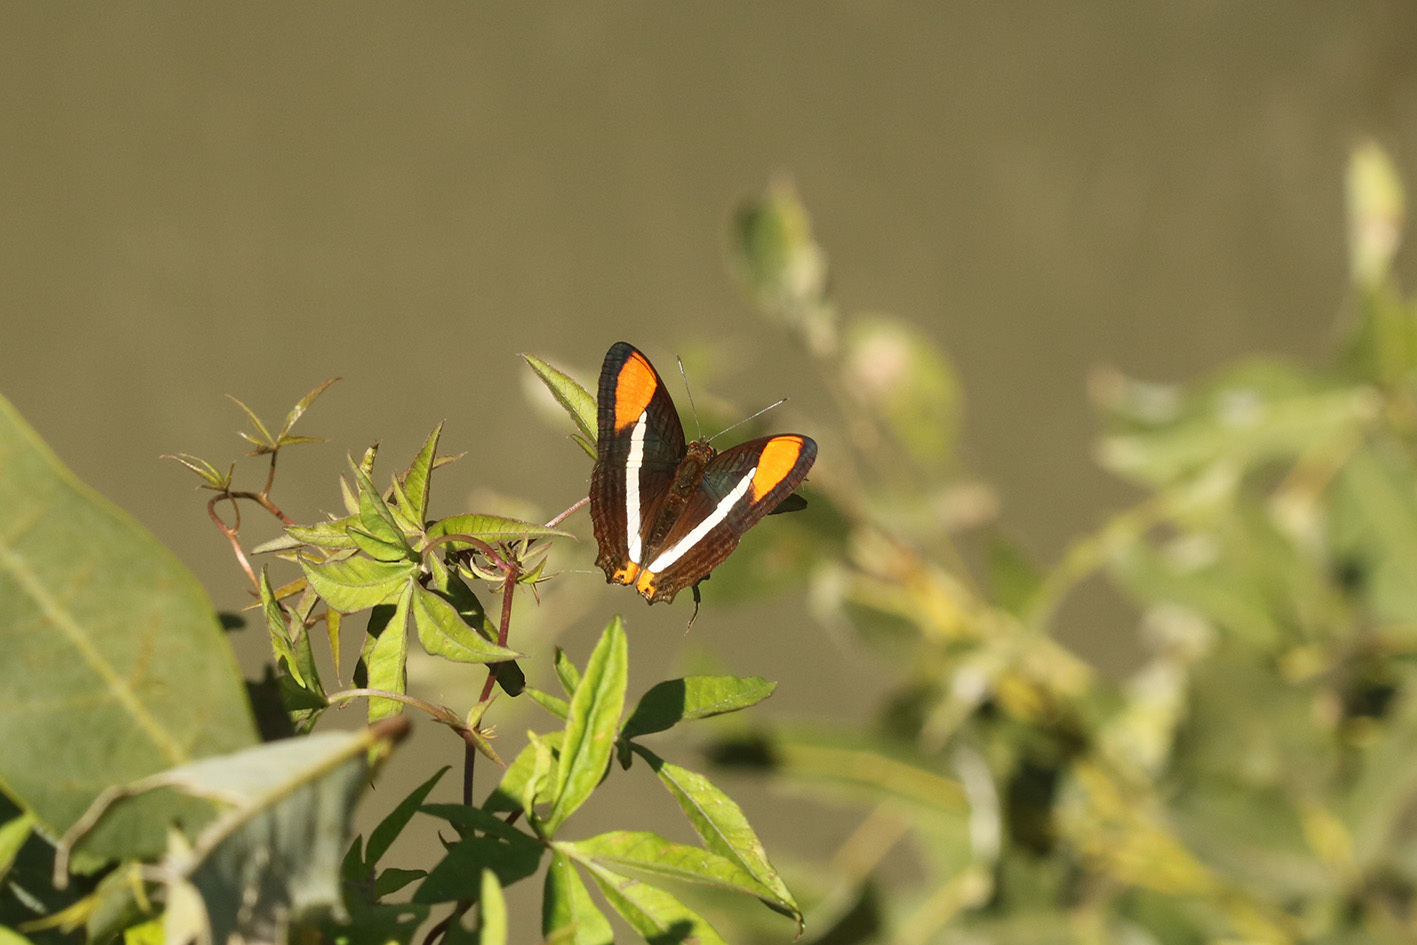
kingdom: Animalia
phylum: Arthropoda
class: Insecta
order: Lepidoptera
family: Nymphalidae
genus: Limenitis
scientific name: Limenitis syma
